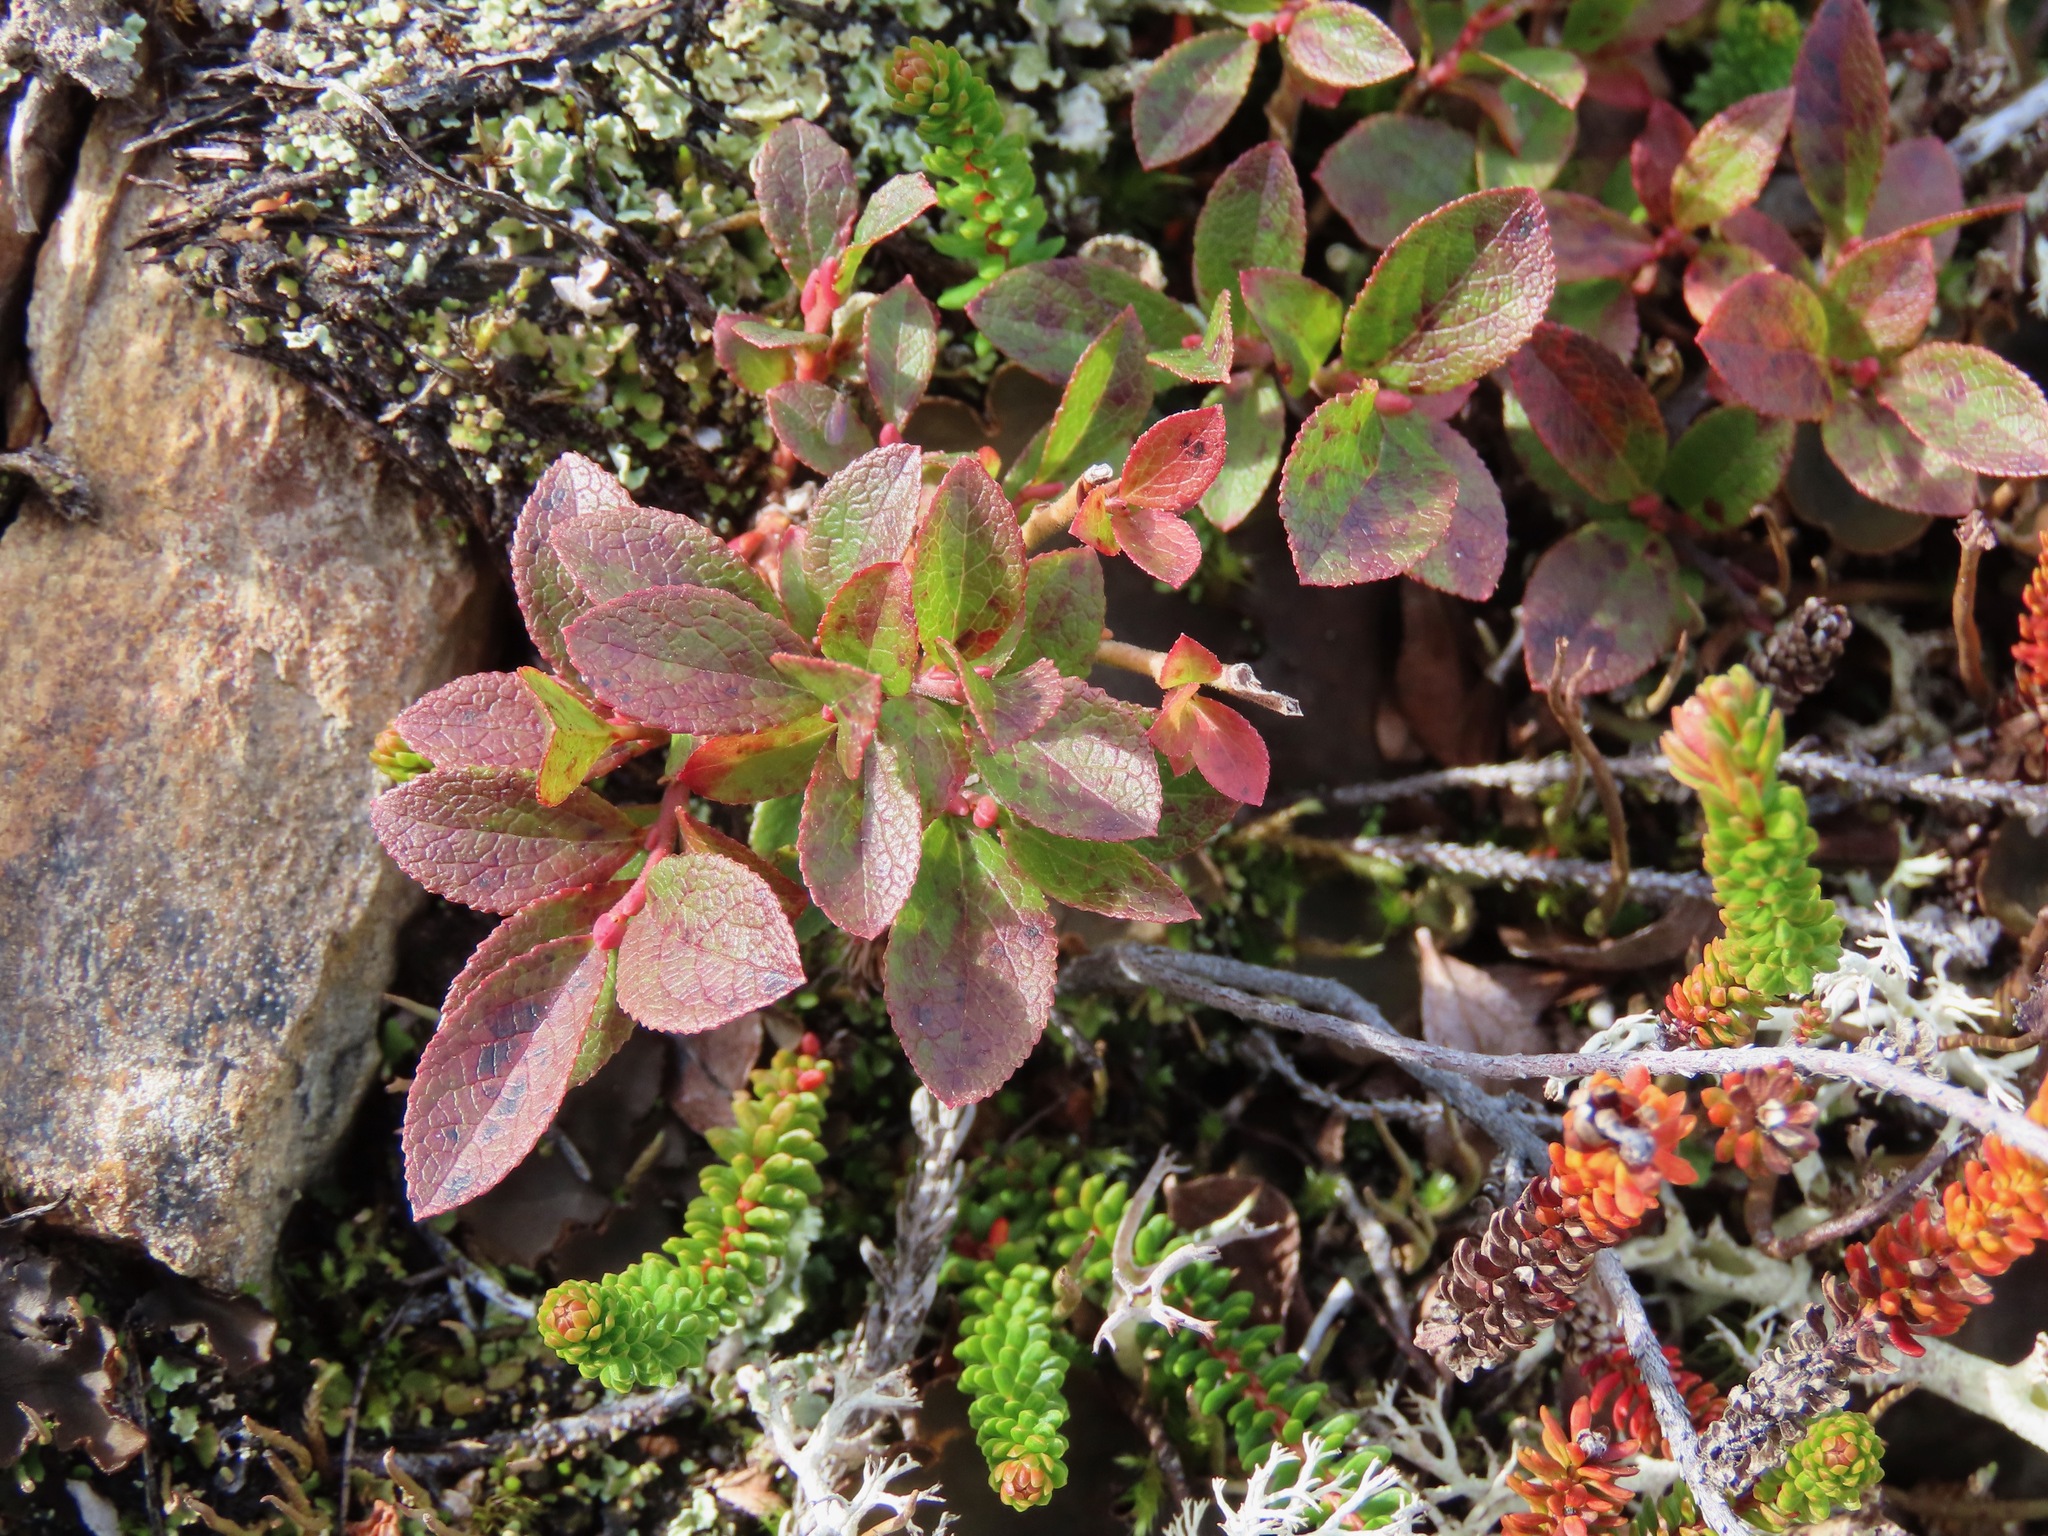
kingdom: Plantae
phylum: Tracheophyta
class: Magnoliopsida
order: Ericales
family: Ericaceae
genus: Vaccinium
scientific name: Vaccinium cespitosum
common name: Dwarf bilberry
